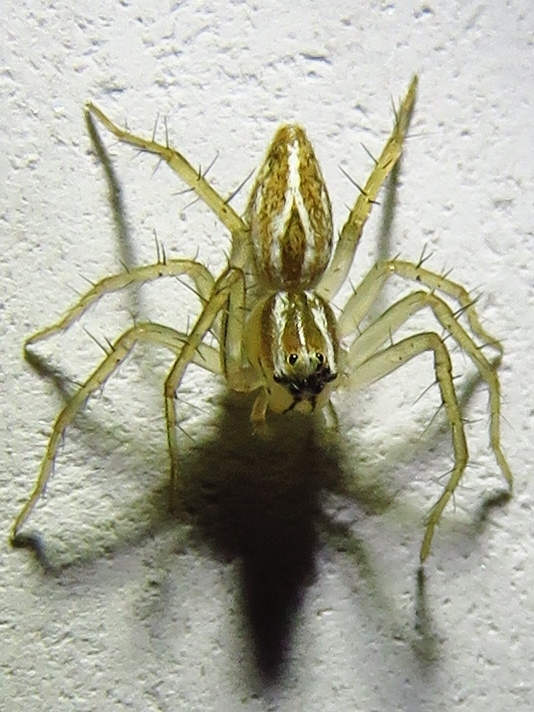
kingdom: Animalia
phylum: Arthropoda
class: Arachnida
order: Araneae
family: Oxyopidae
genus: Oxyopes
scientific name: Oxyopes salticus
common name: Lynx spiders
